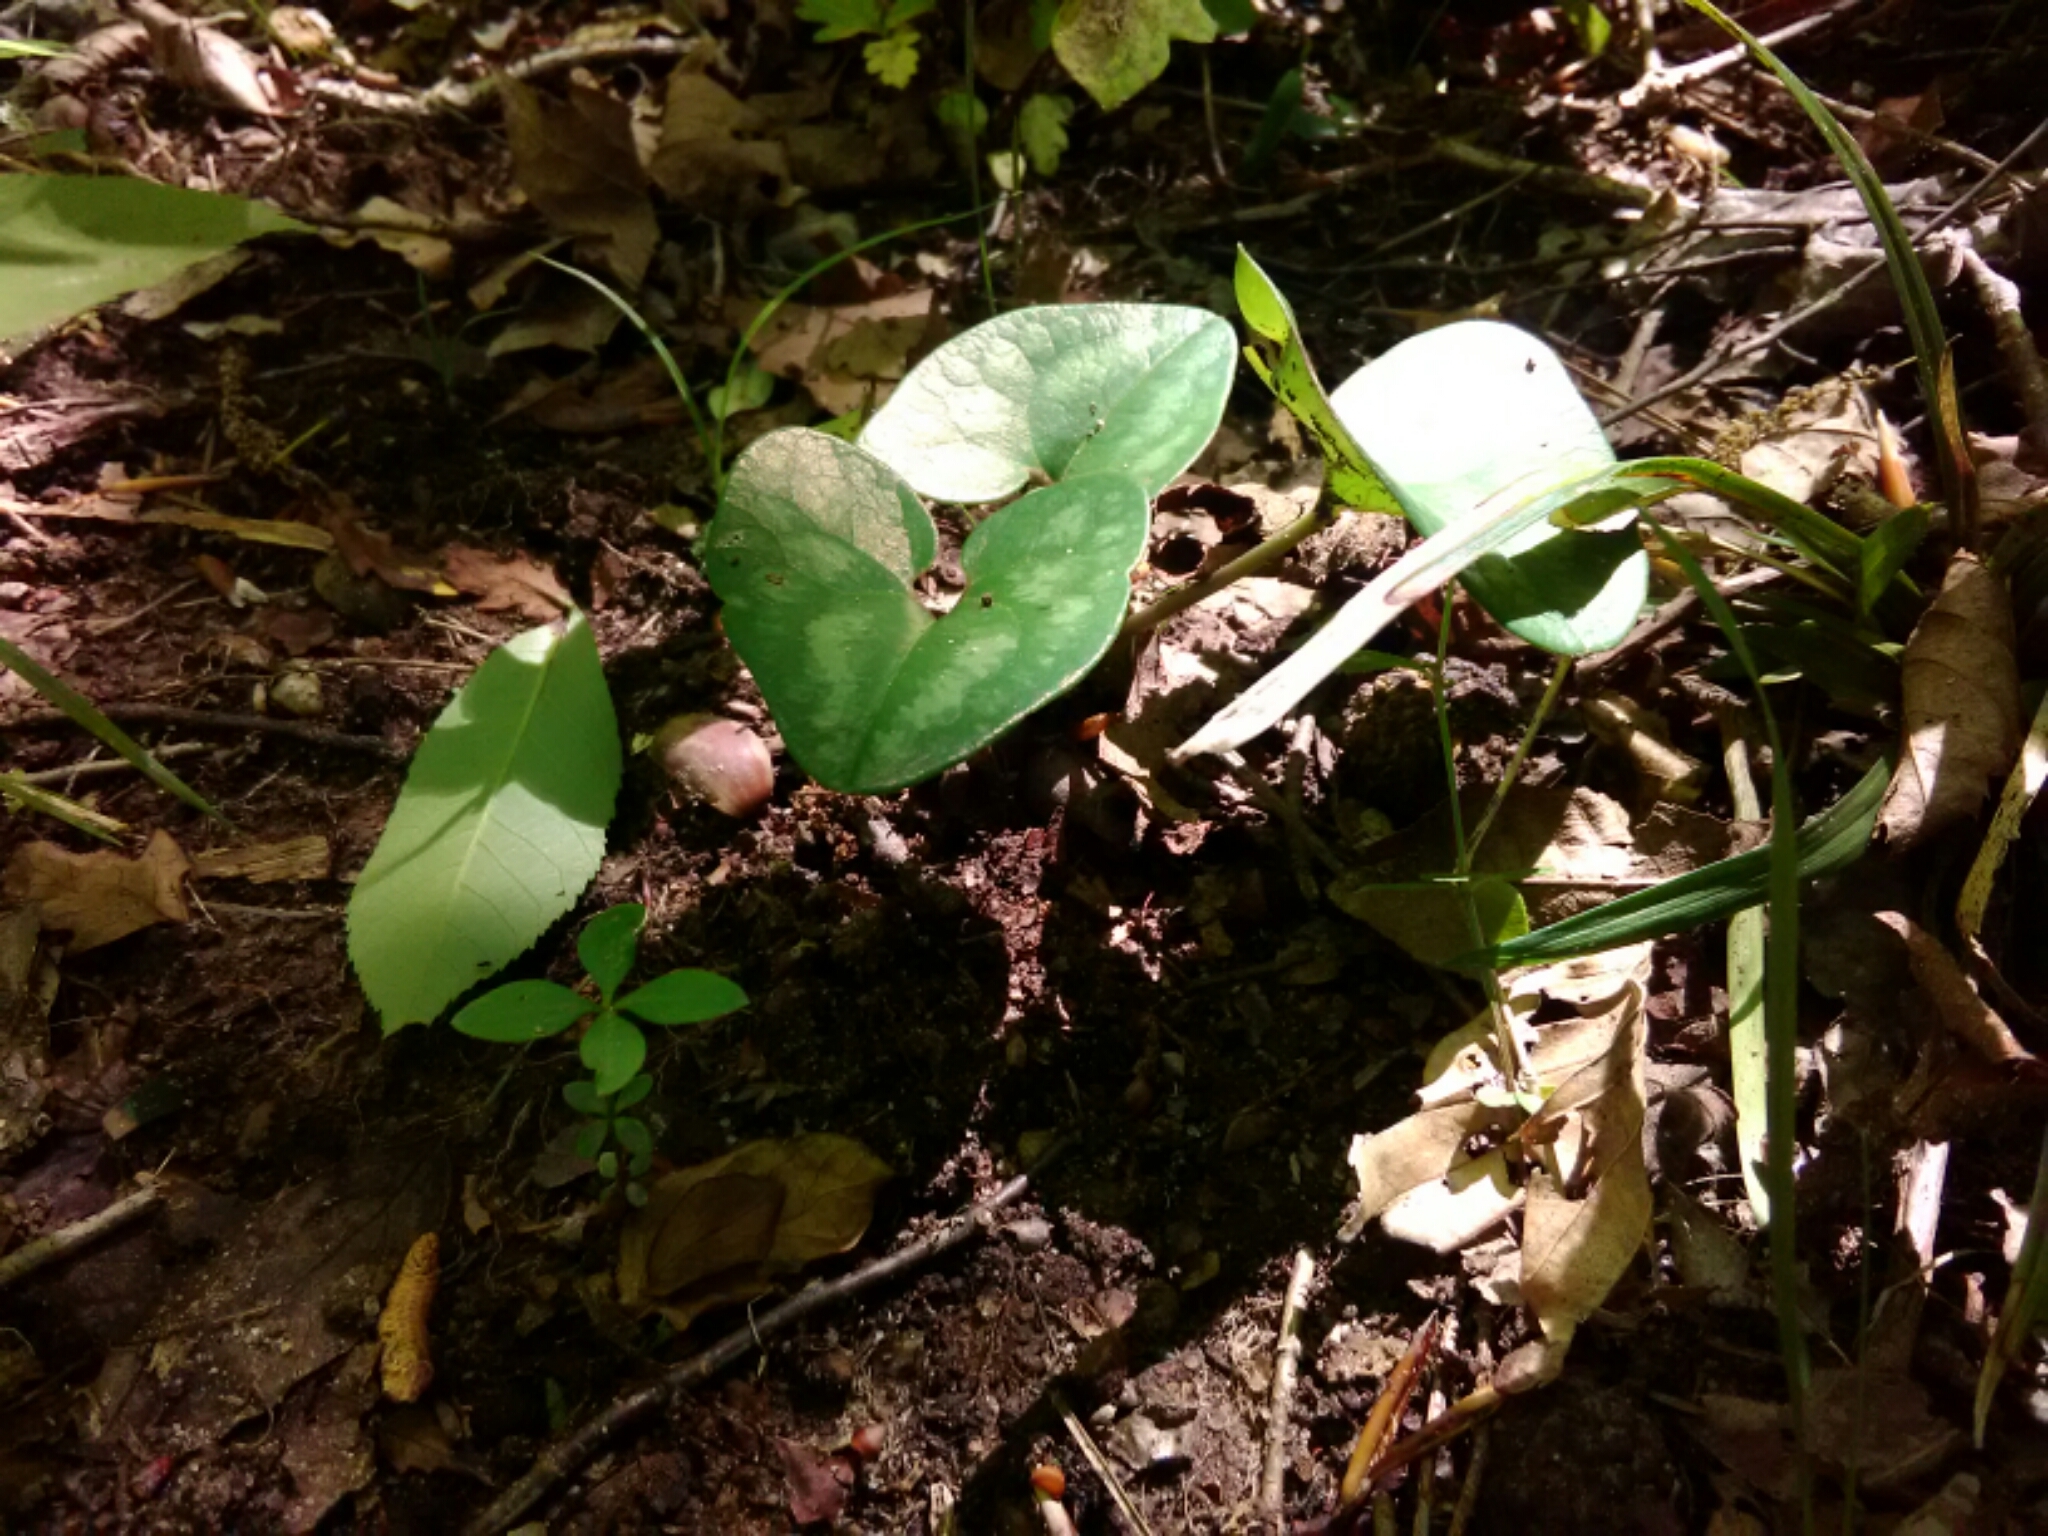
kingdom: Plantae
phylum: Tracheophyta
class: Magnoliopsida
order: Piperales
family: Aristolochiaceae
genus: Hexastylis
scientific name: Hexastylis arifolia
